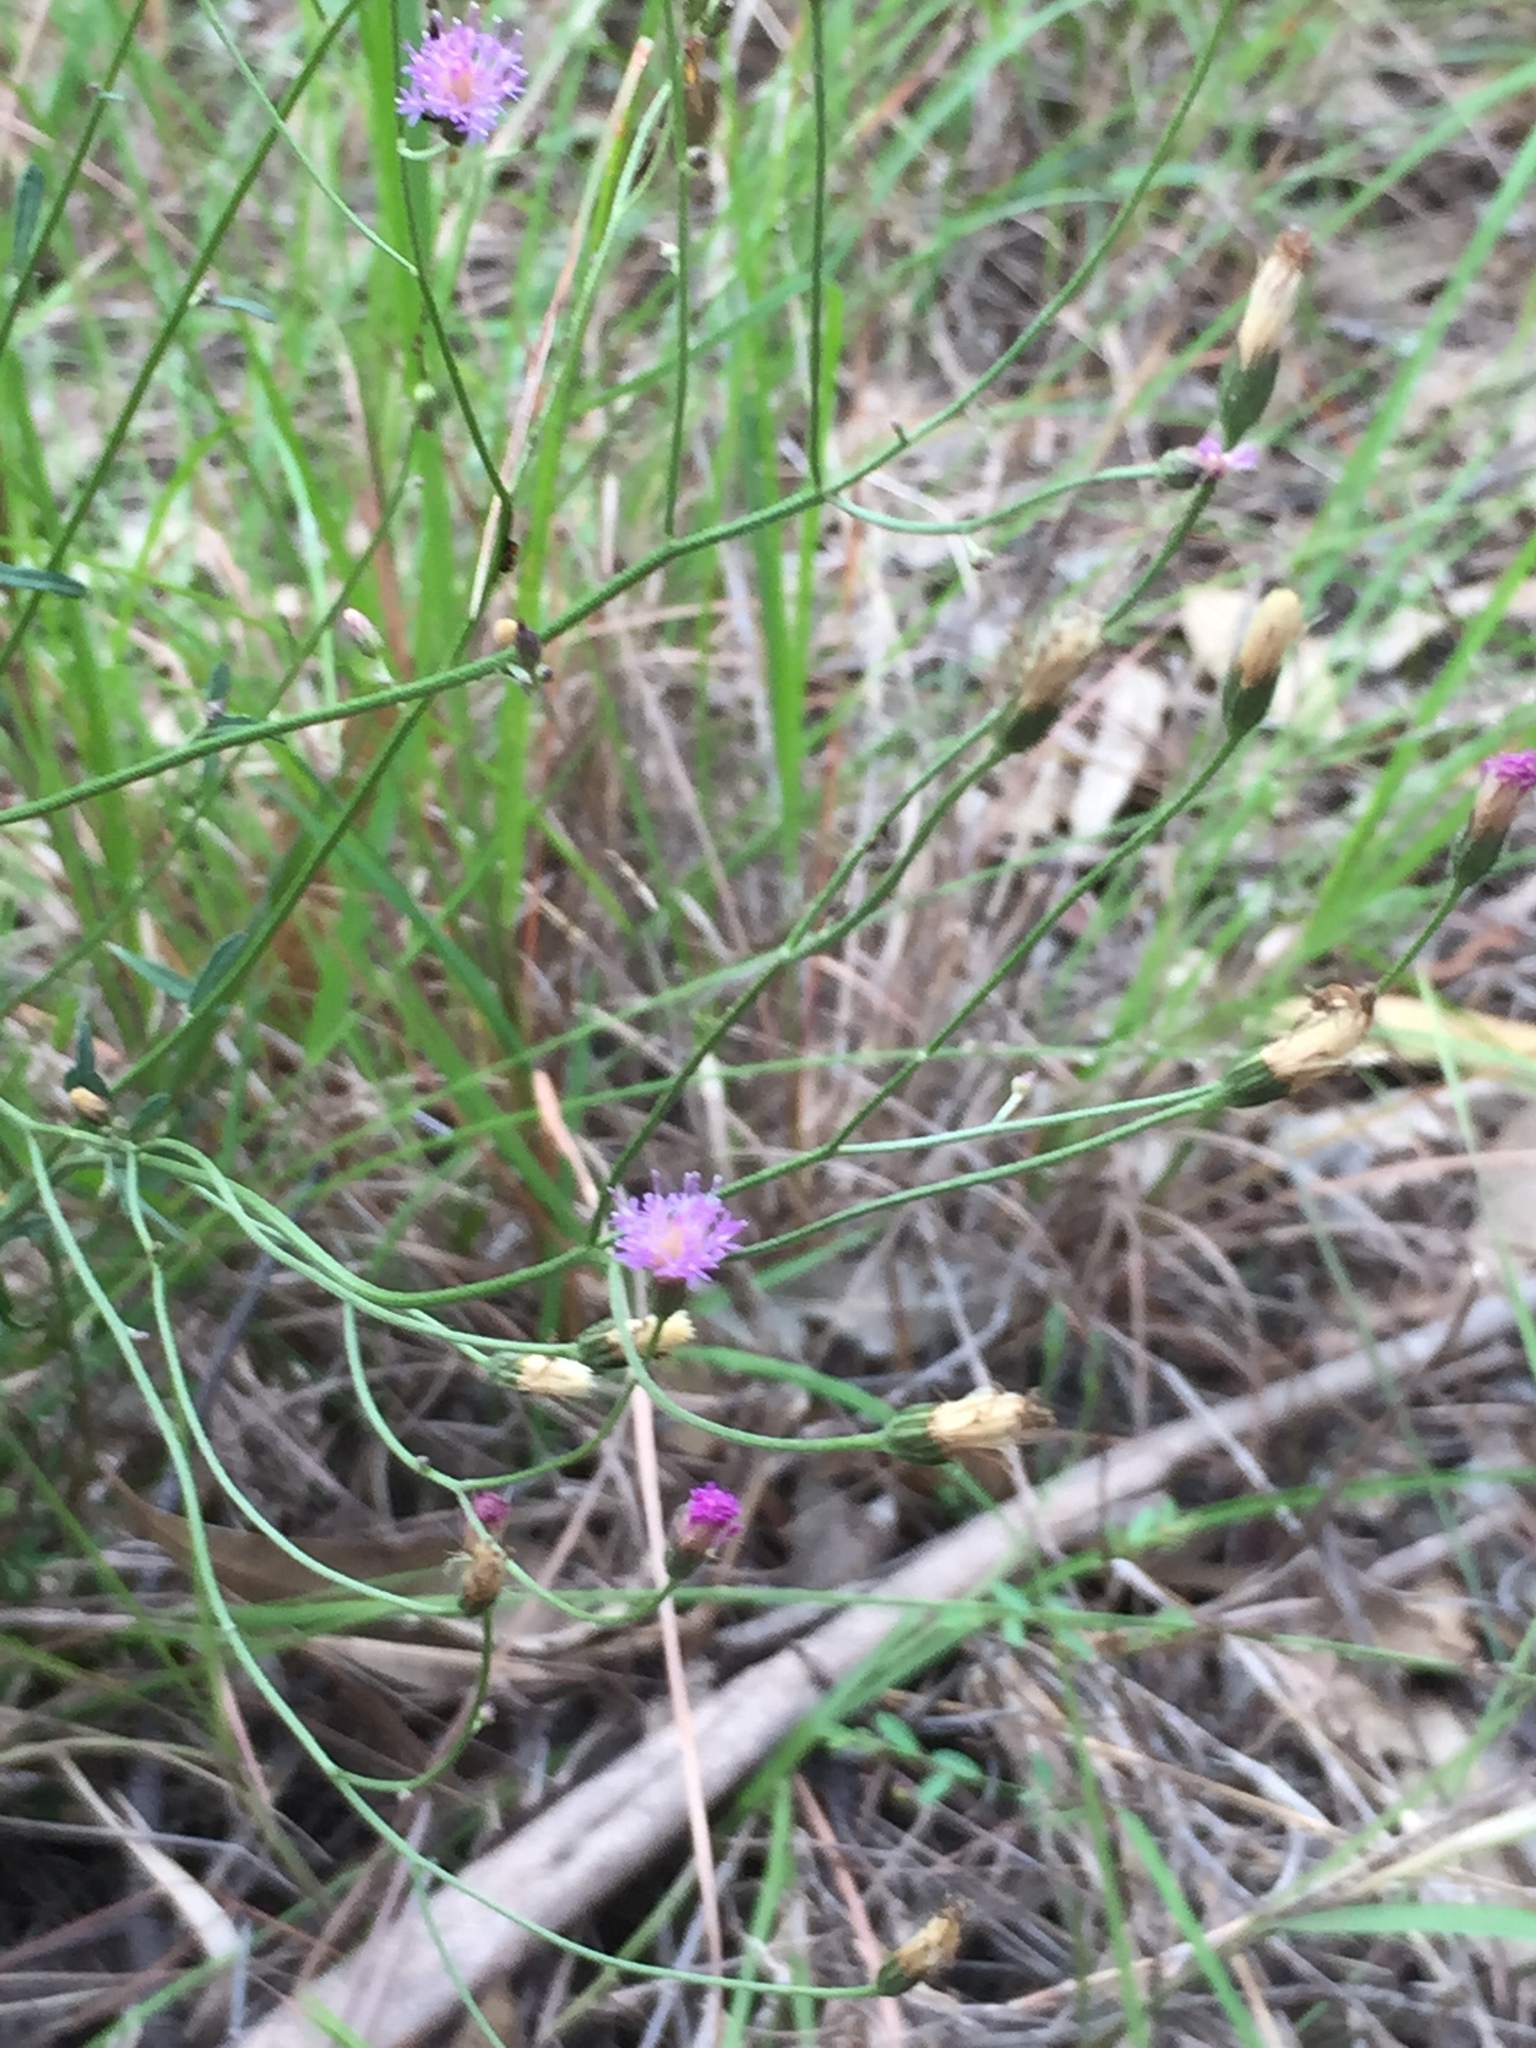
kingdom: Plantae
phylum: Tracheophyta
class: Magnoliopsida
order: Asterales
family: Asteraceae
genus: Cyanthillium
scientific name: Cyanthillium cinereum
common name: Little ironweed
